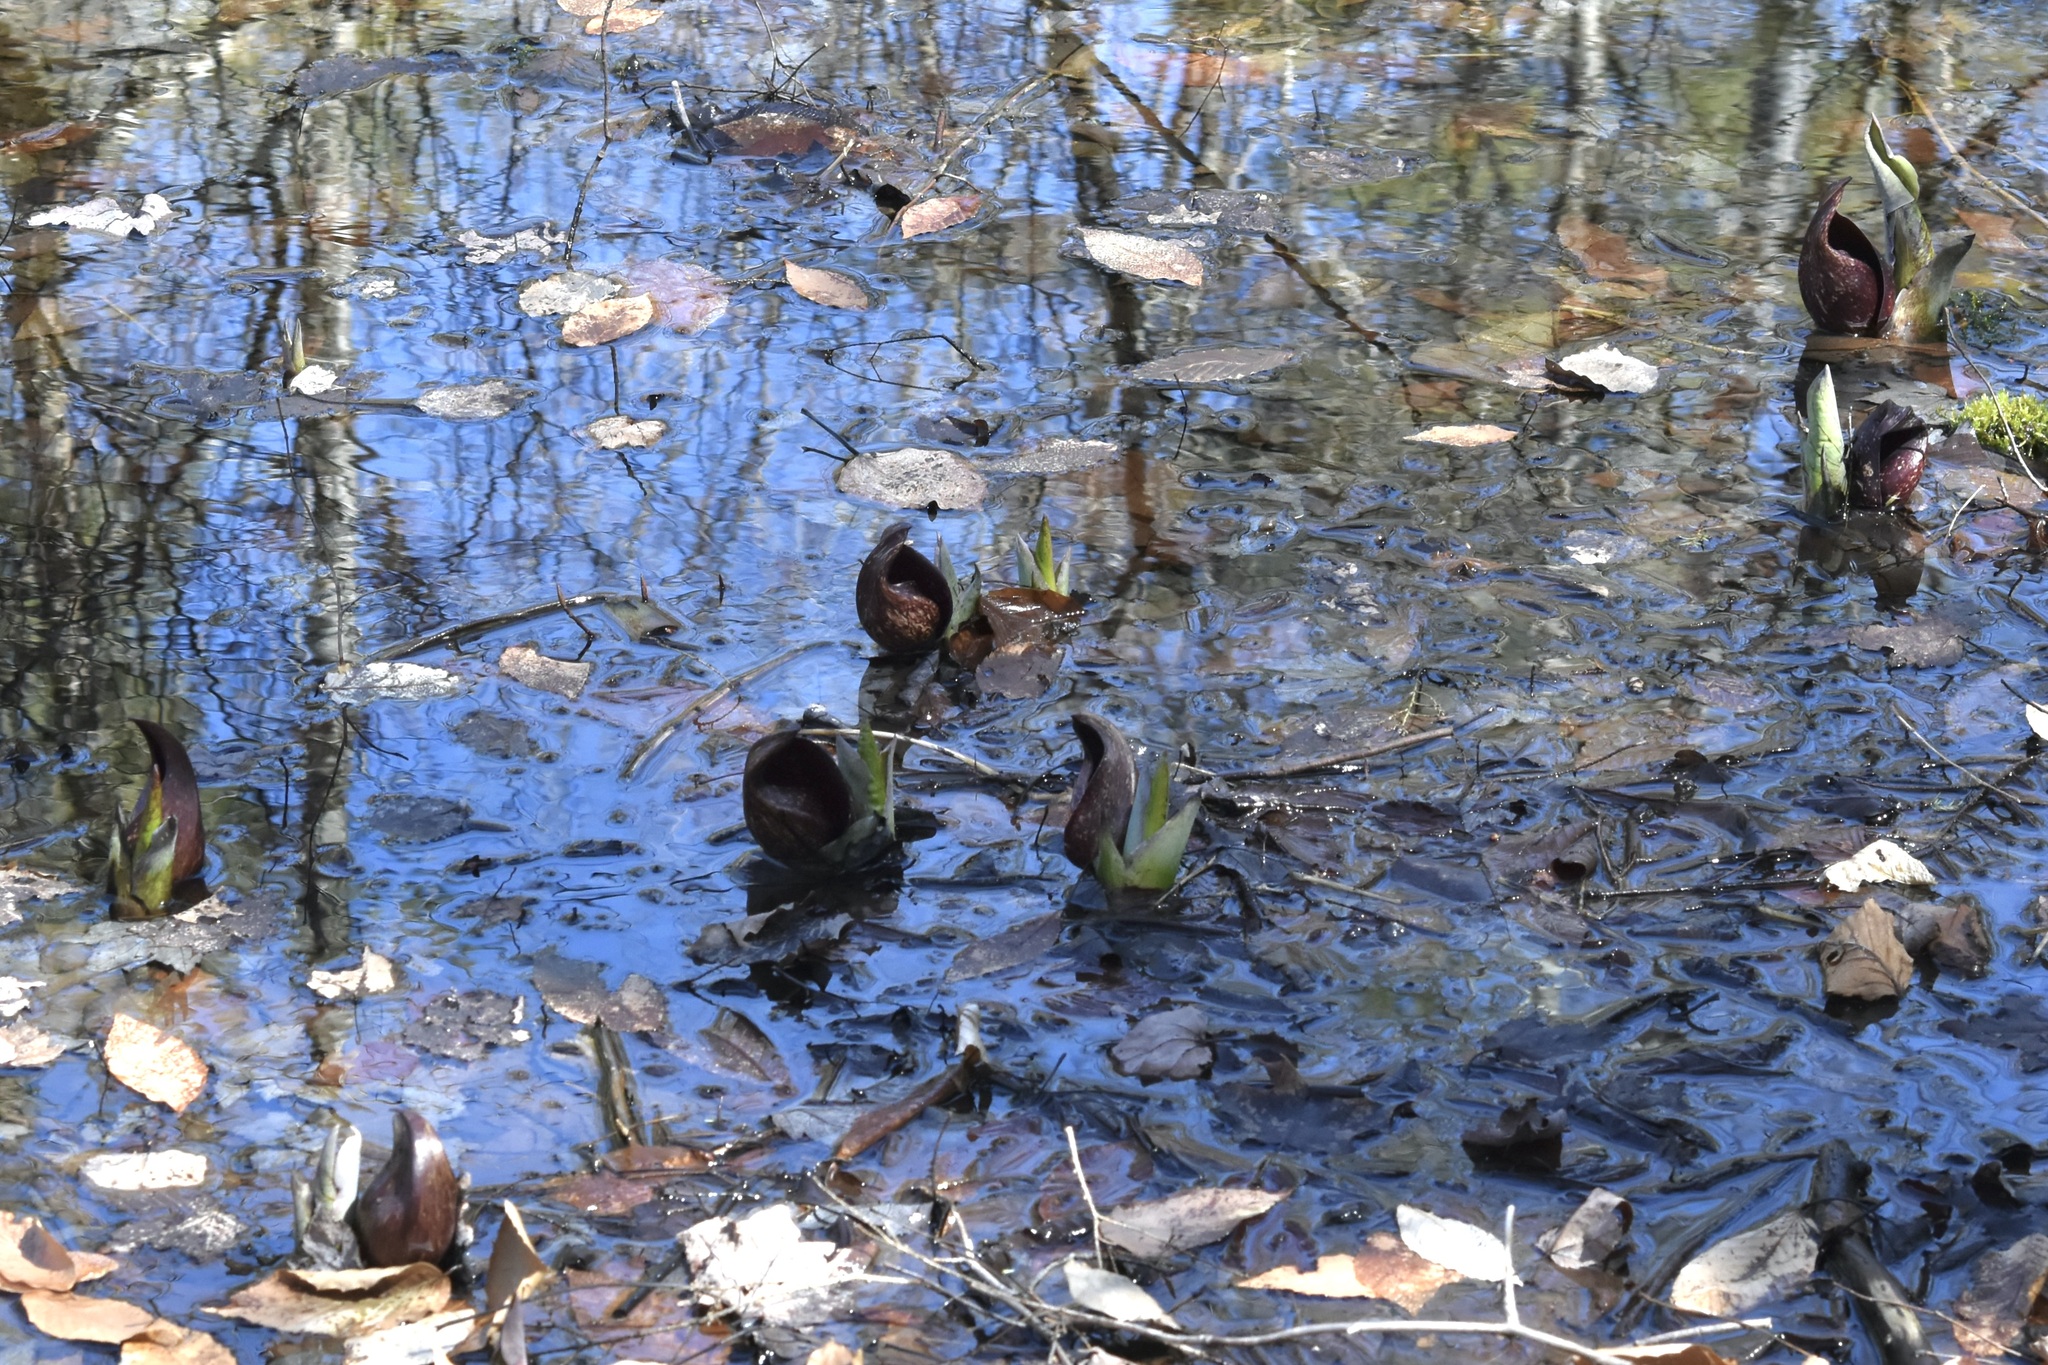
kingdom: Plantae
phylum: Tracheophyta
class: Liliopsida
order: Alismatales
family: Araceae
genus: Symplocarpus
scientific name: Symplocarpus foetidus
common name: Eastern skunk cabbage
